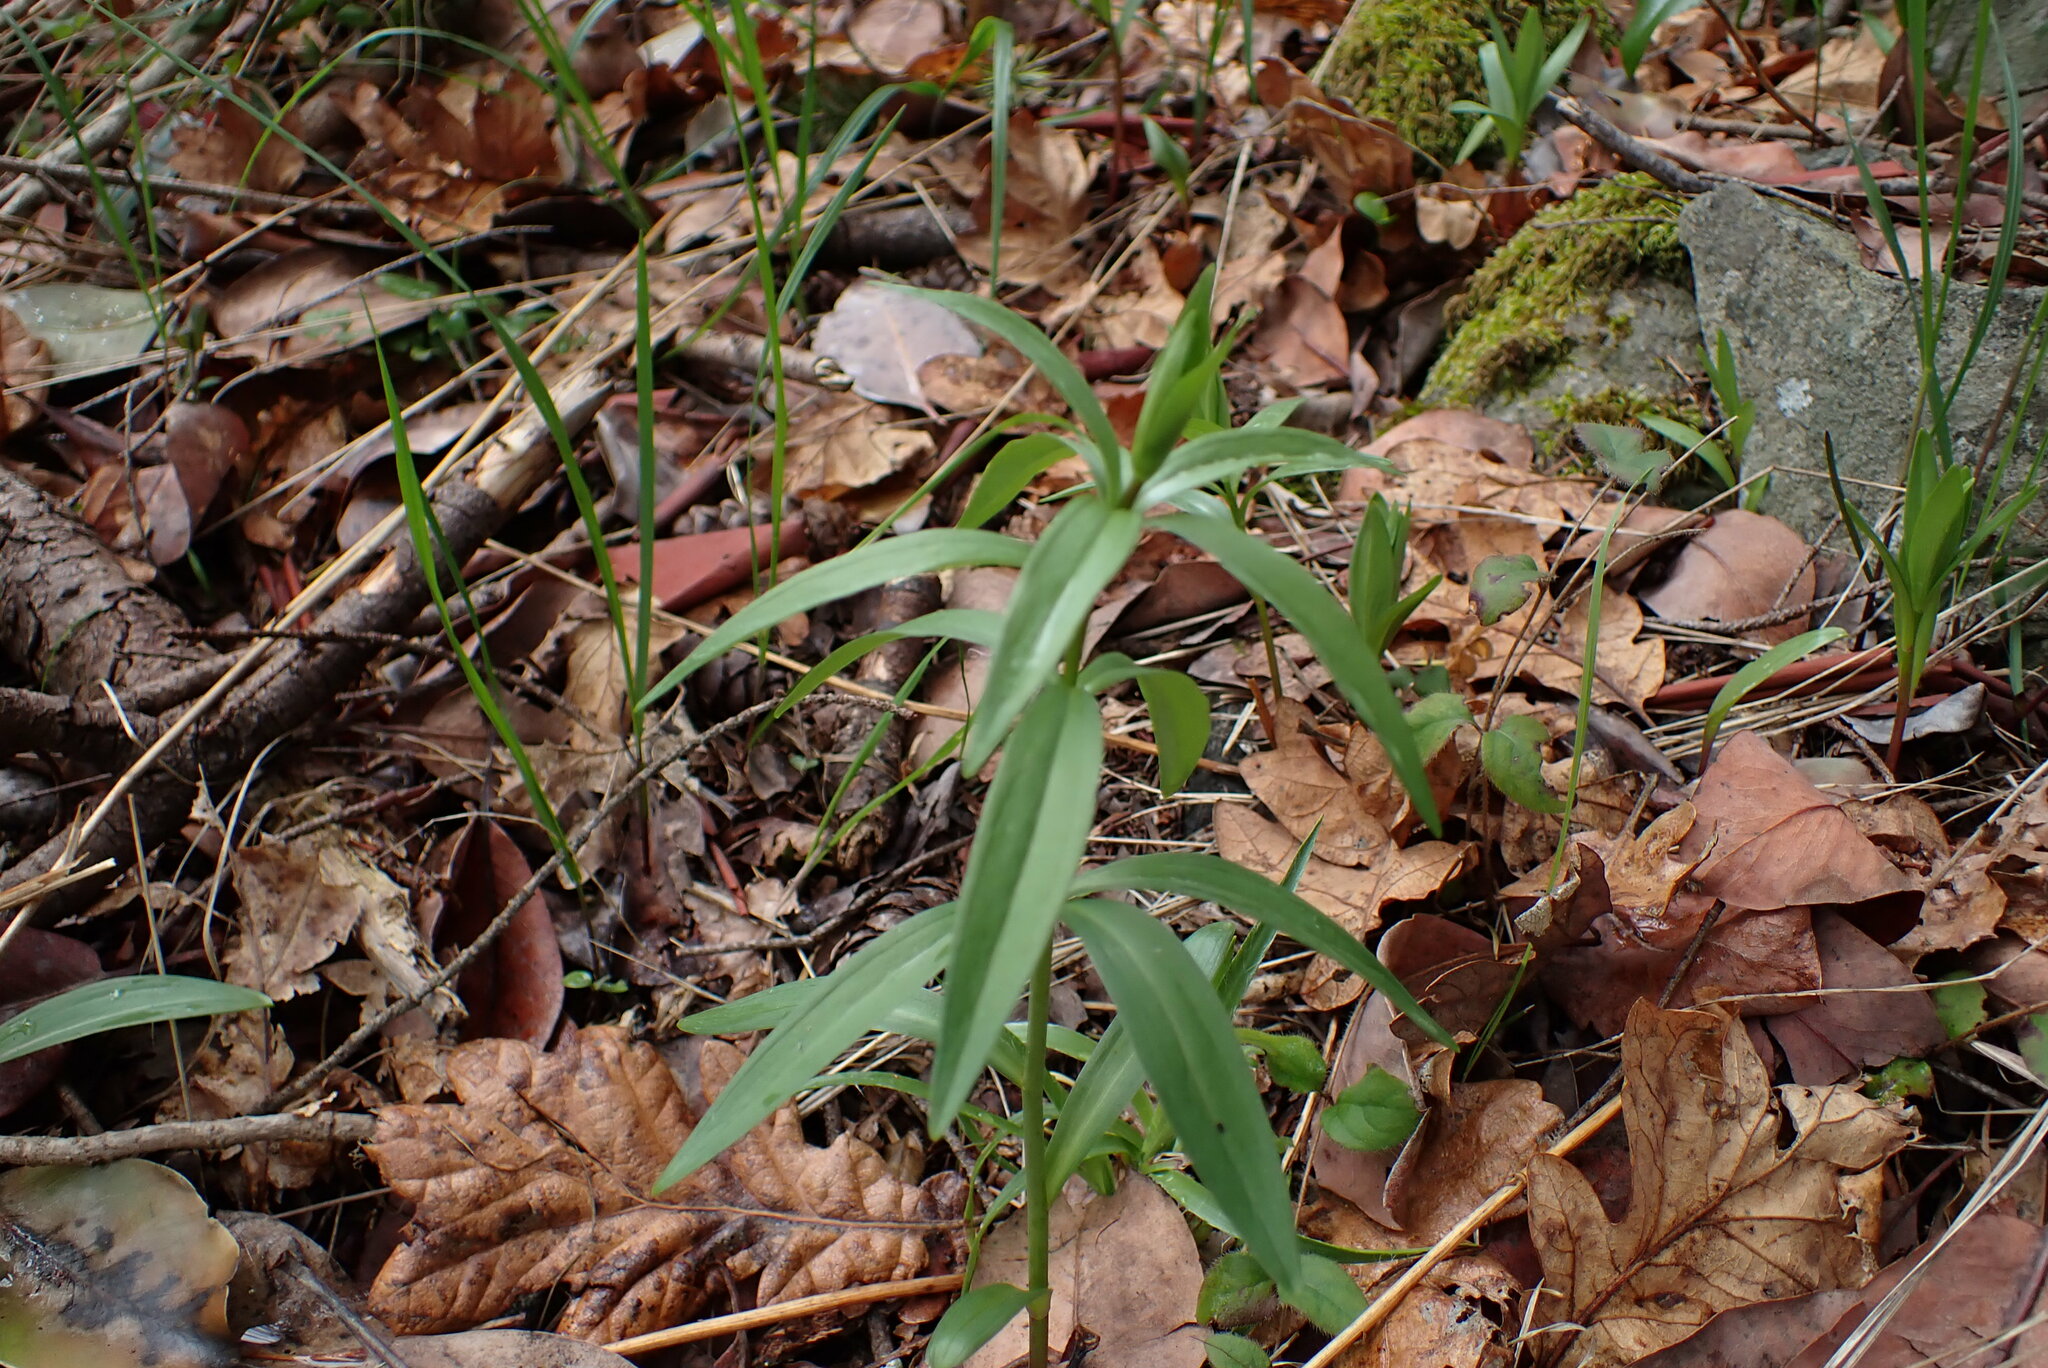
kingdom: Plantae
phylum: Tracheophyta
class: Liliopsida
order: Liliales
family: Liliaceae
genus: Fritillaria
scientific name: Fritillaria affinis
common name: Ojai fritillary
